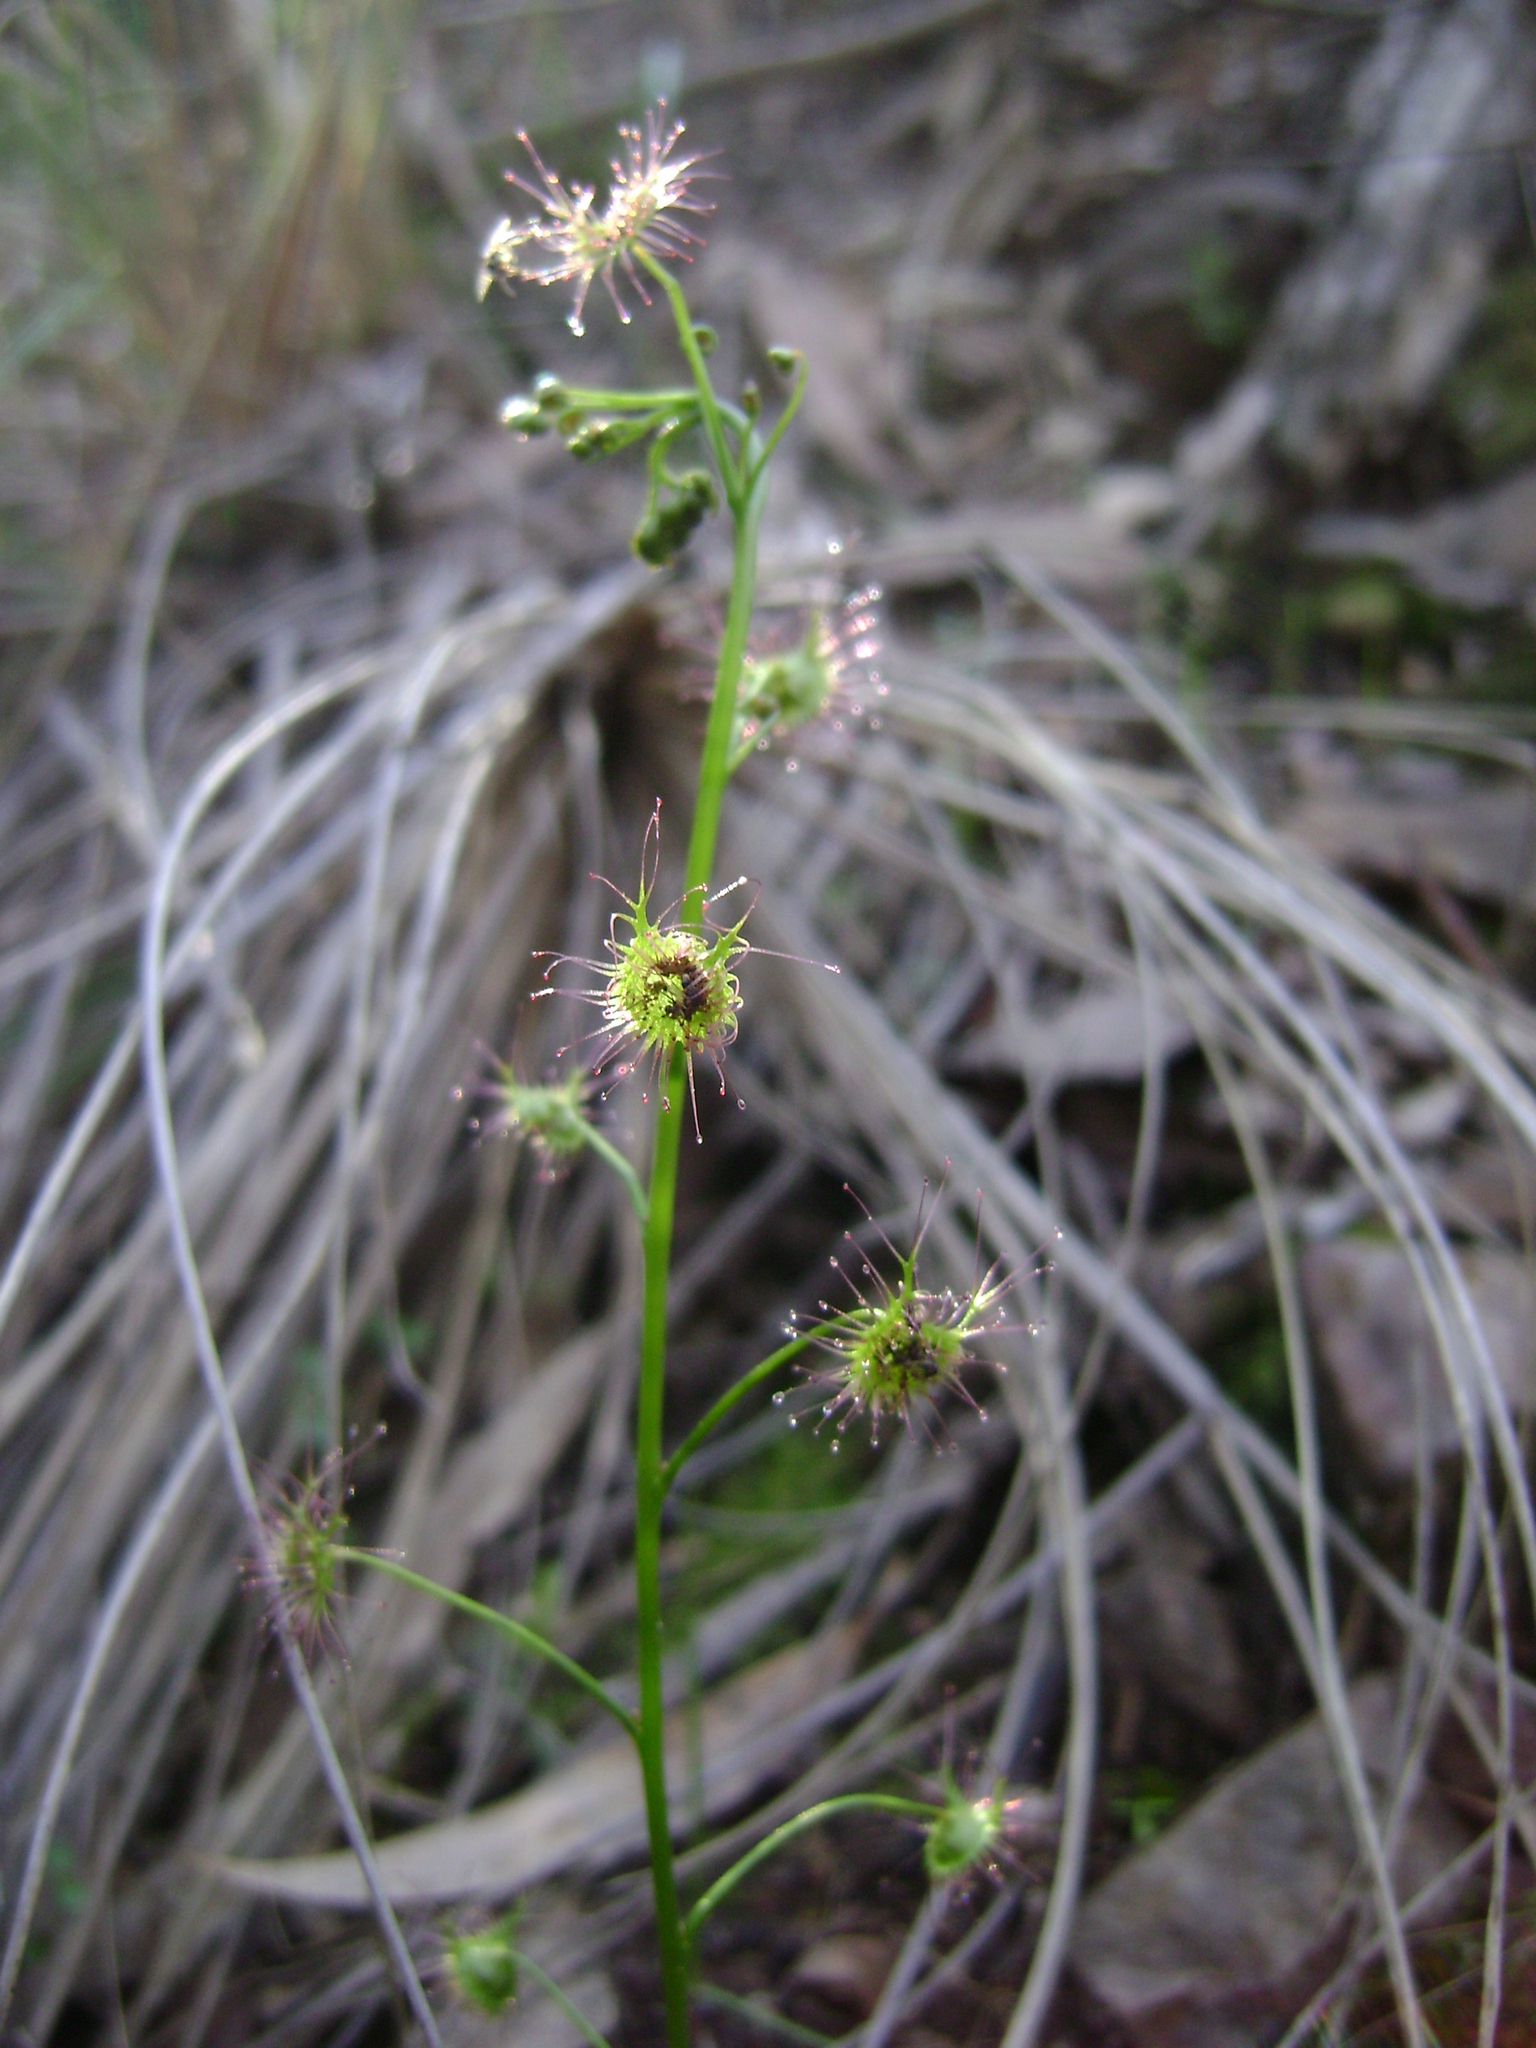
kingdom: Plantae
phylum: Tracheophyta
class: Magnoliopsida
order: Caryophyllales
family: Droseraceae
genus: Drosera
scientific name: Drosera peltata
